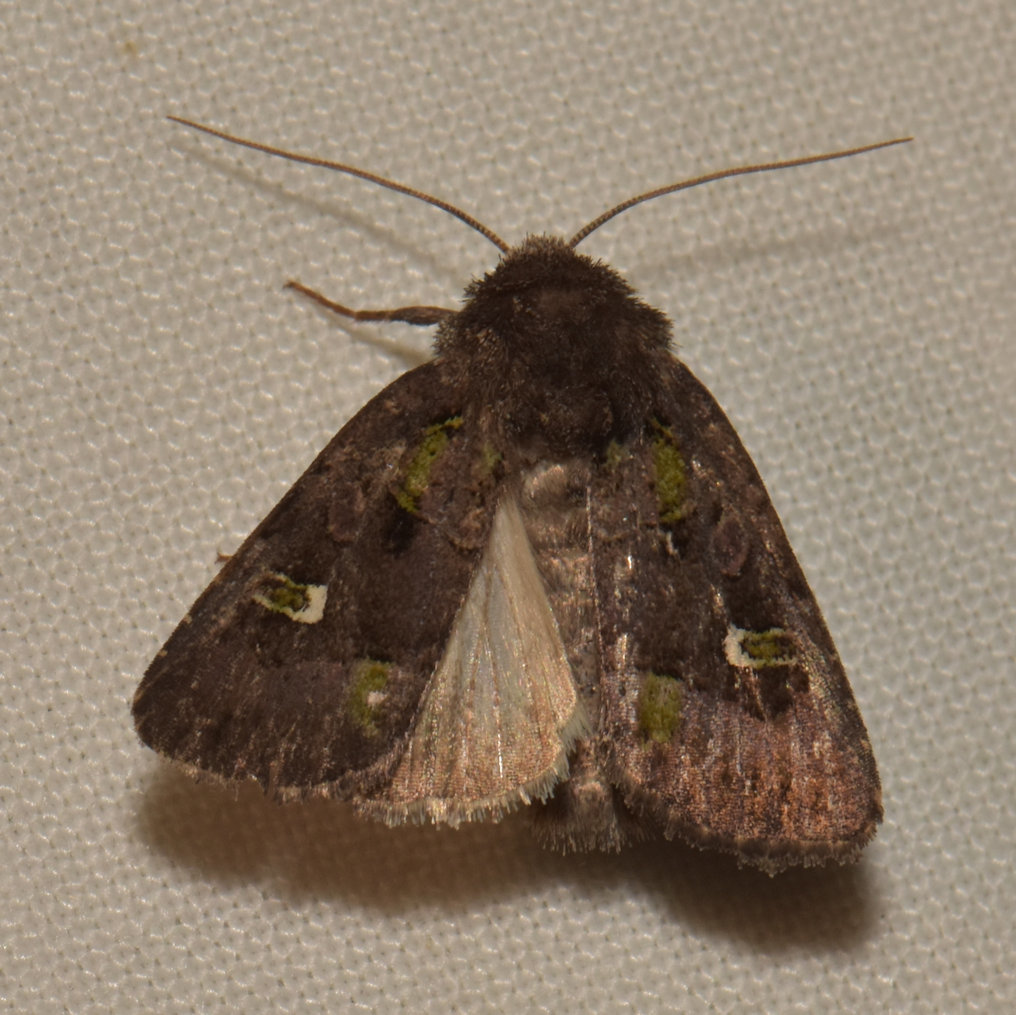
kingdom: Animalia
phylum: Arthropoda
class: Insecta
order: Lepidoptera
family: Noctuidae
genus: Lacinipolia
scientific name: Lacinipolia renigera
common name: Kidney-spotted minor
